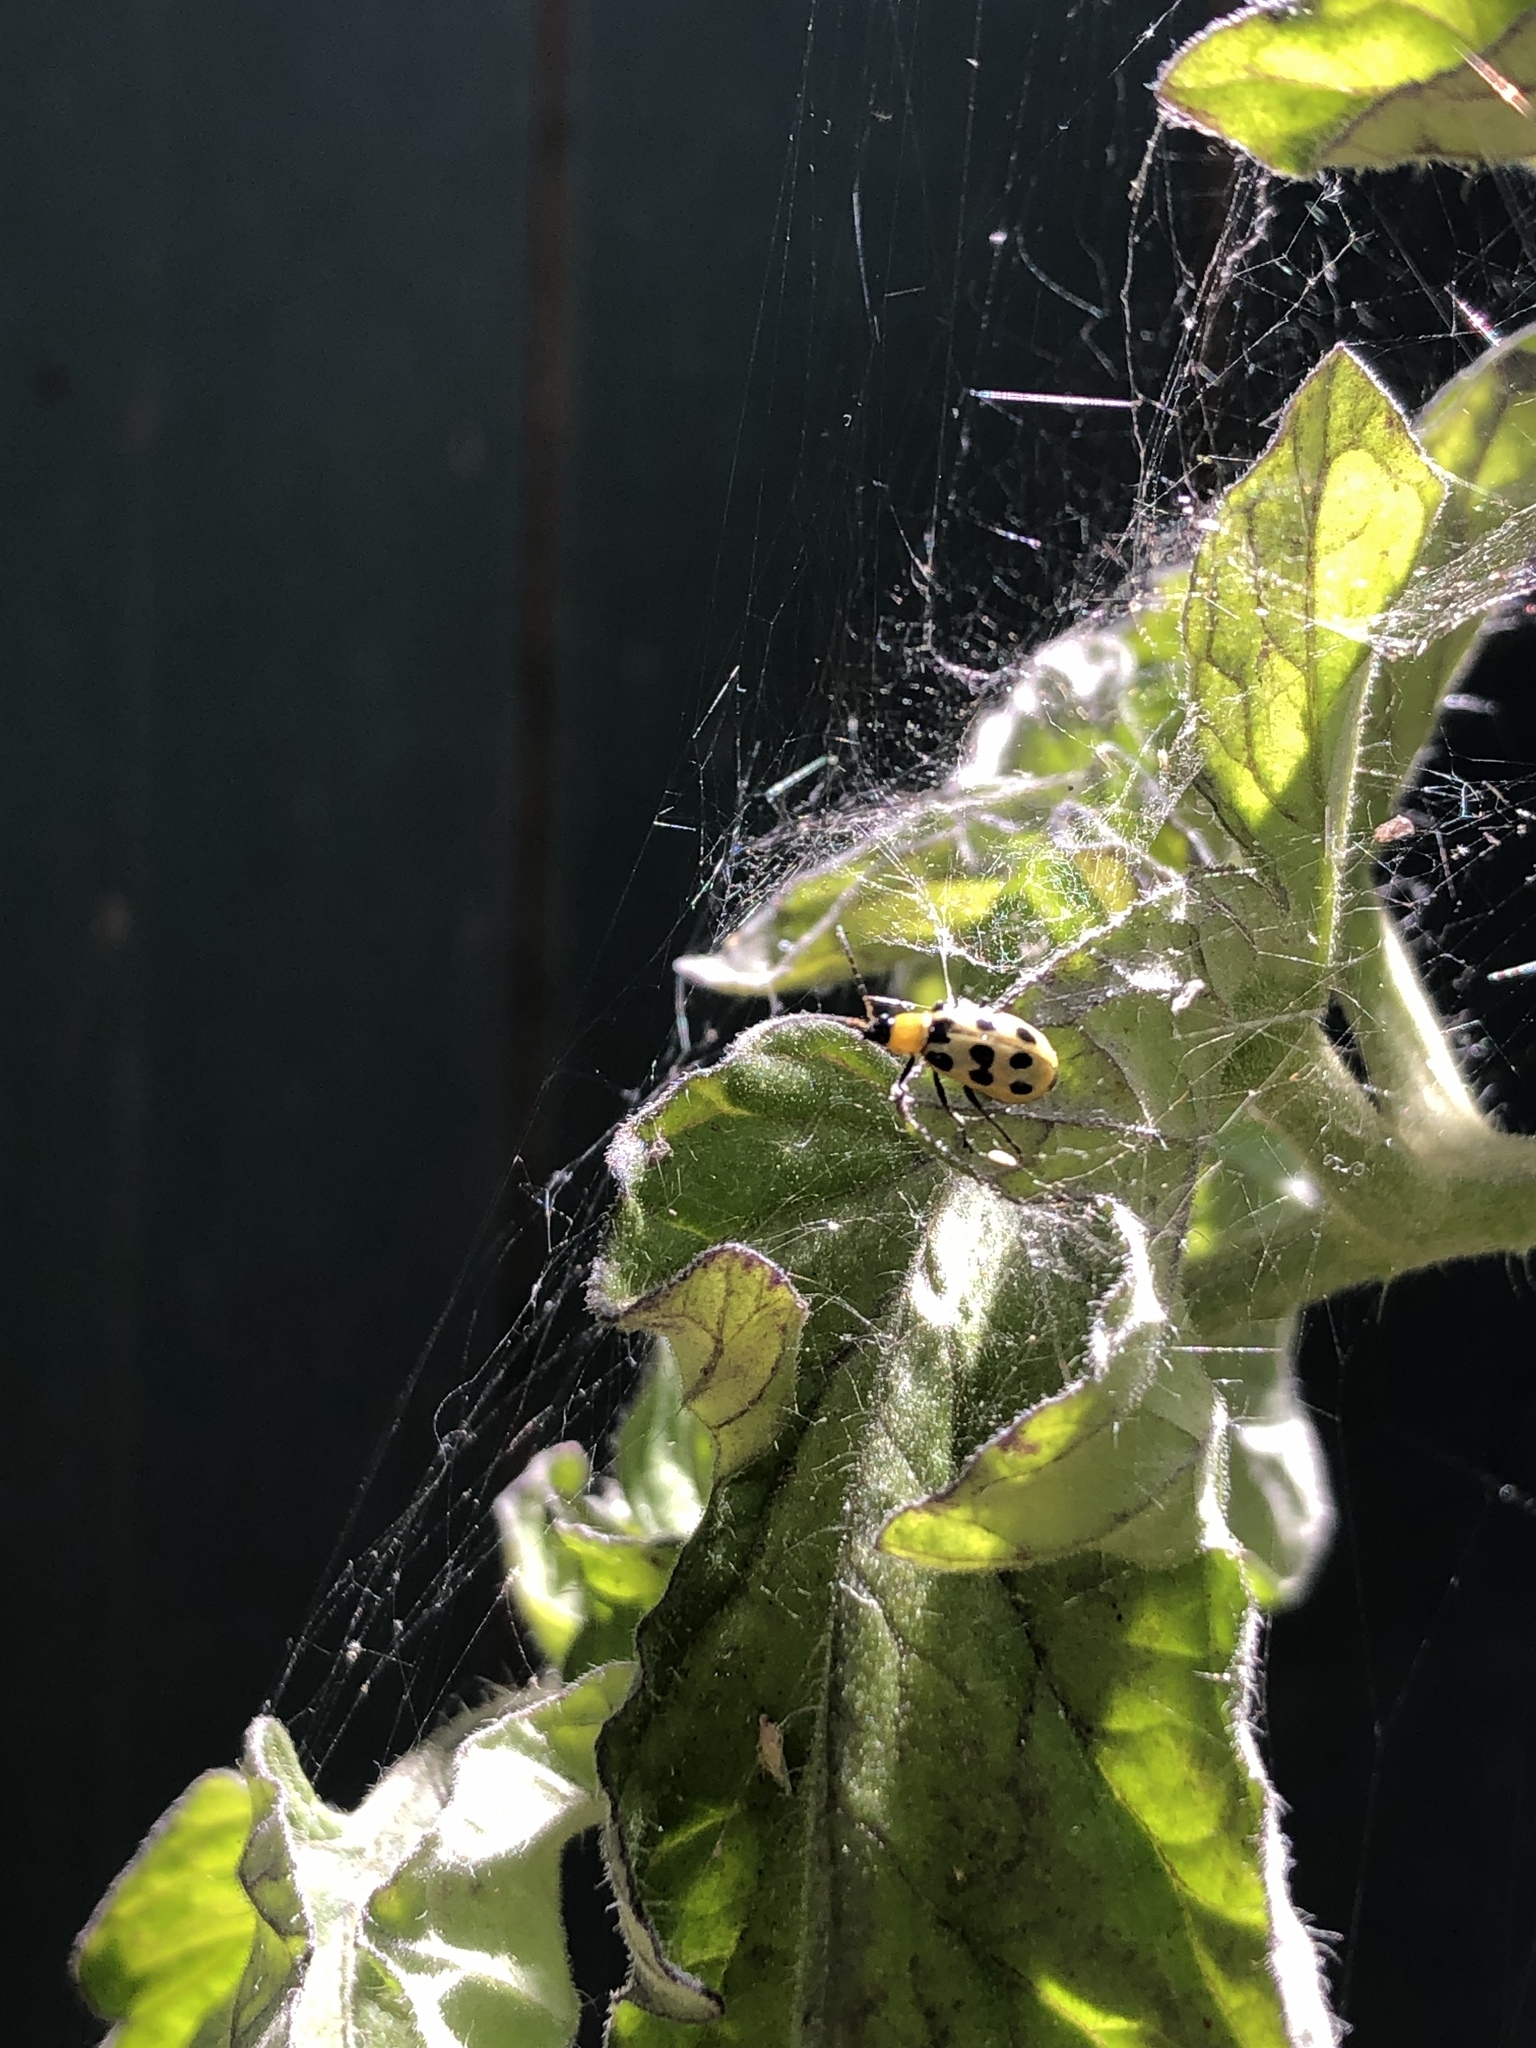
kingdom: Animalia
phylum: Arthropoda
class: Insecta
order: Coleoptera
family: Chrysomelidae
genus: Diabrotica
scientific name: Diabrotica undecimpunctata
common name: Spotted cucumber beetle
